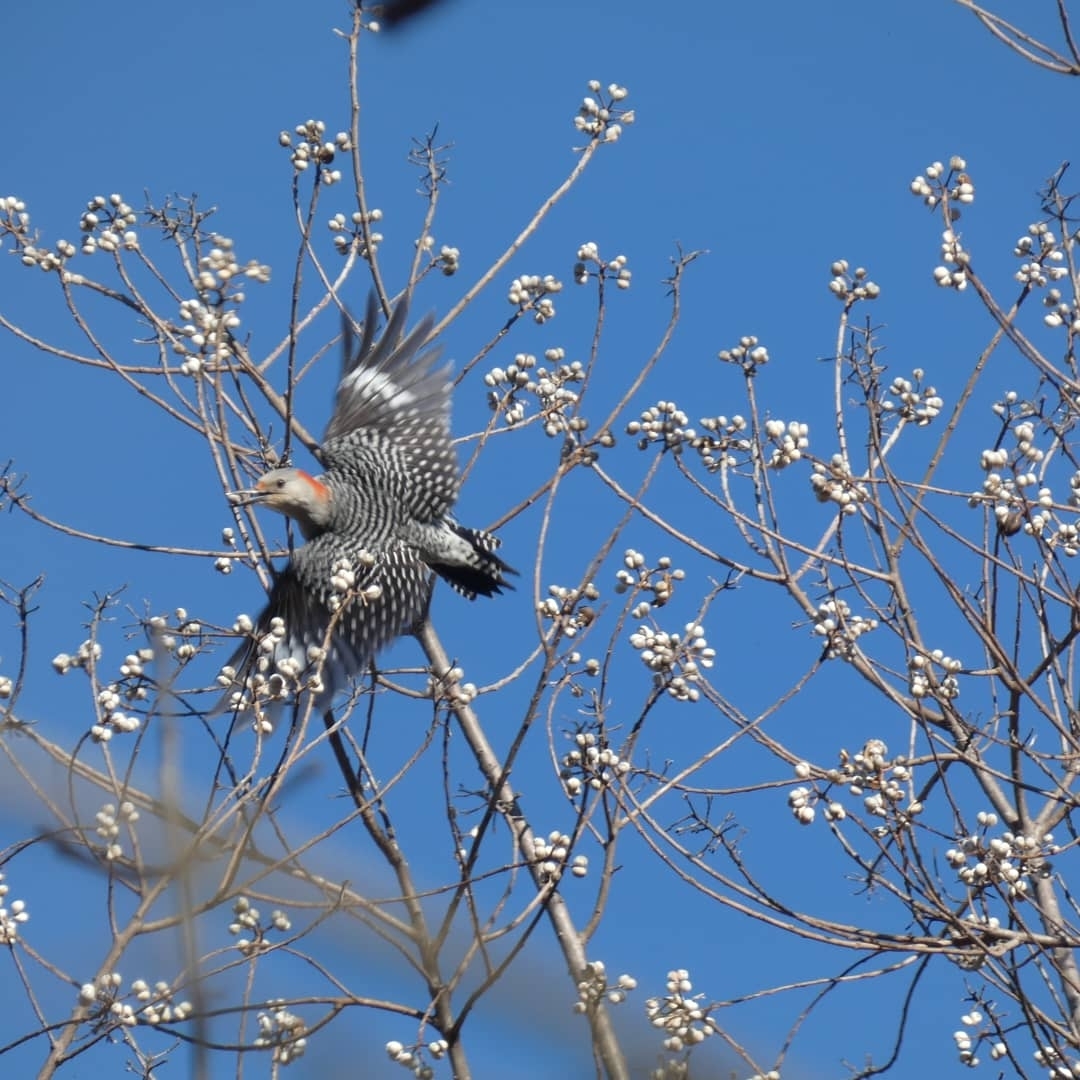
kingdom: Animalia
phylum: Chordata
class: Aves
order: Piciformes
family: Picidae
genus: Melanerpes
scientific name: Melanerpes carolinus
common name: Red-bellied woodpecker
